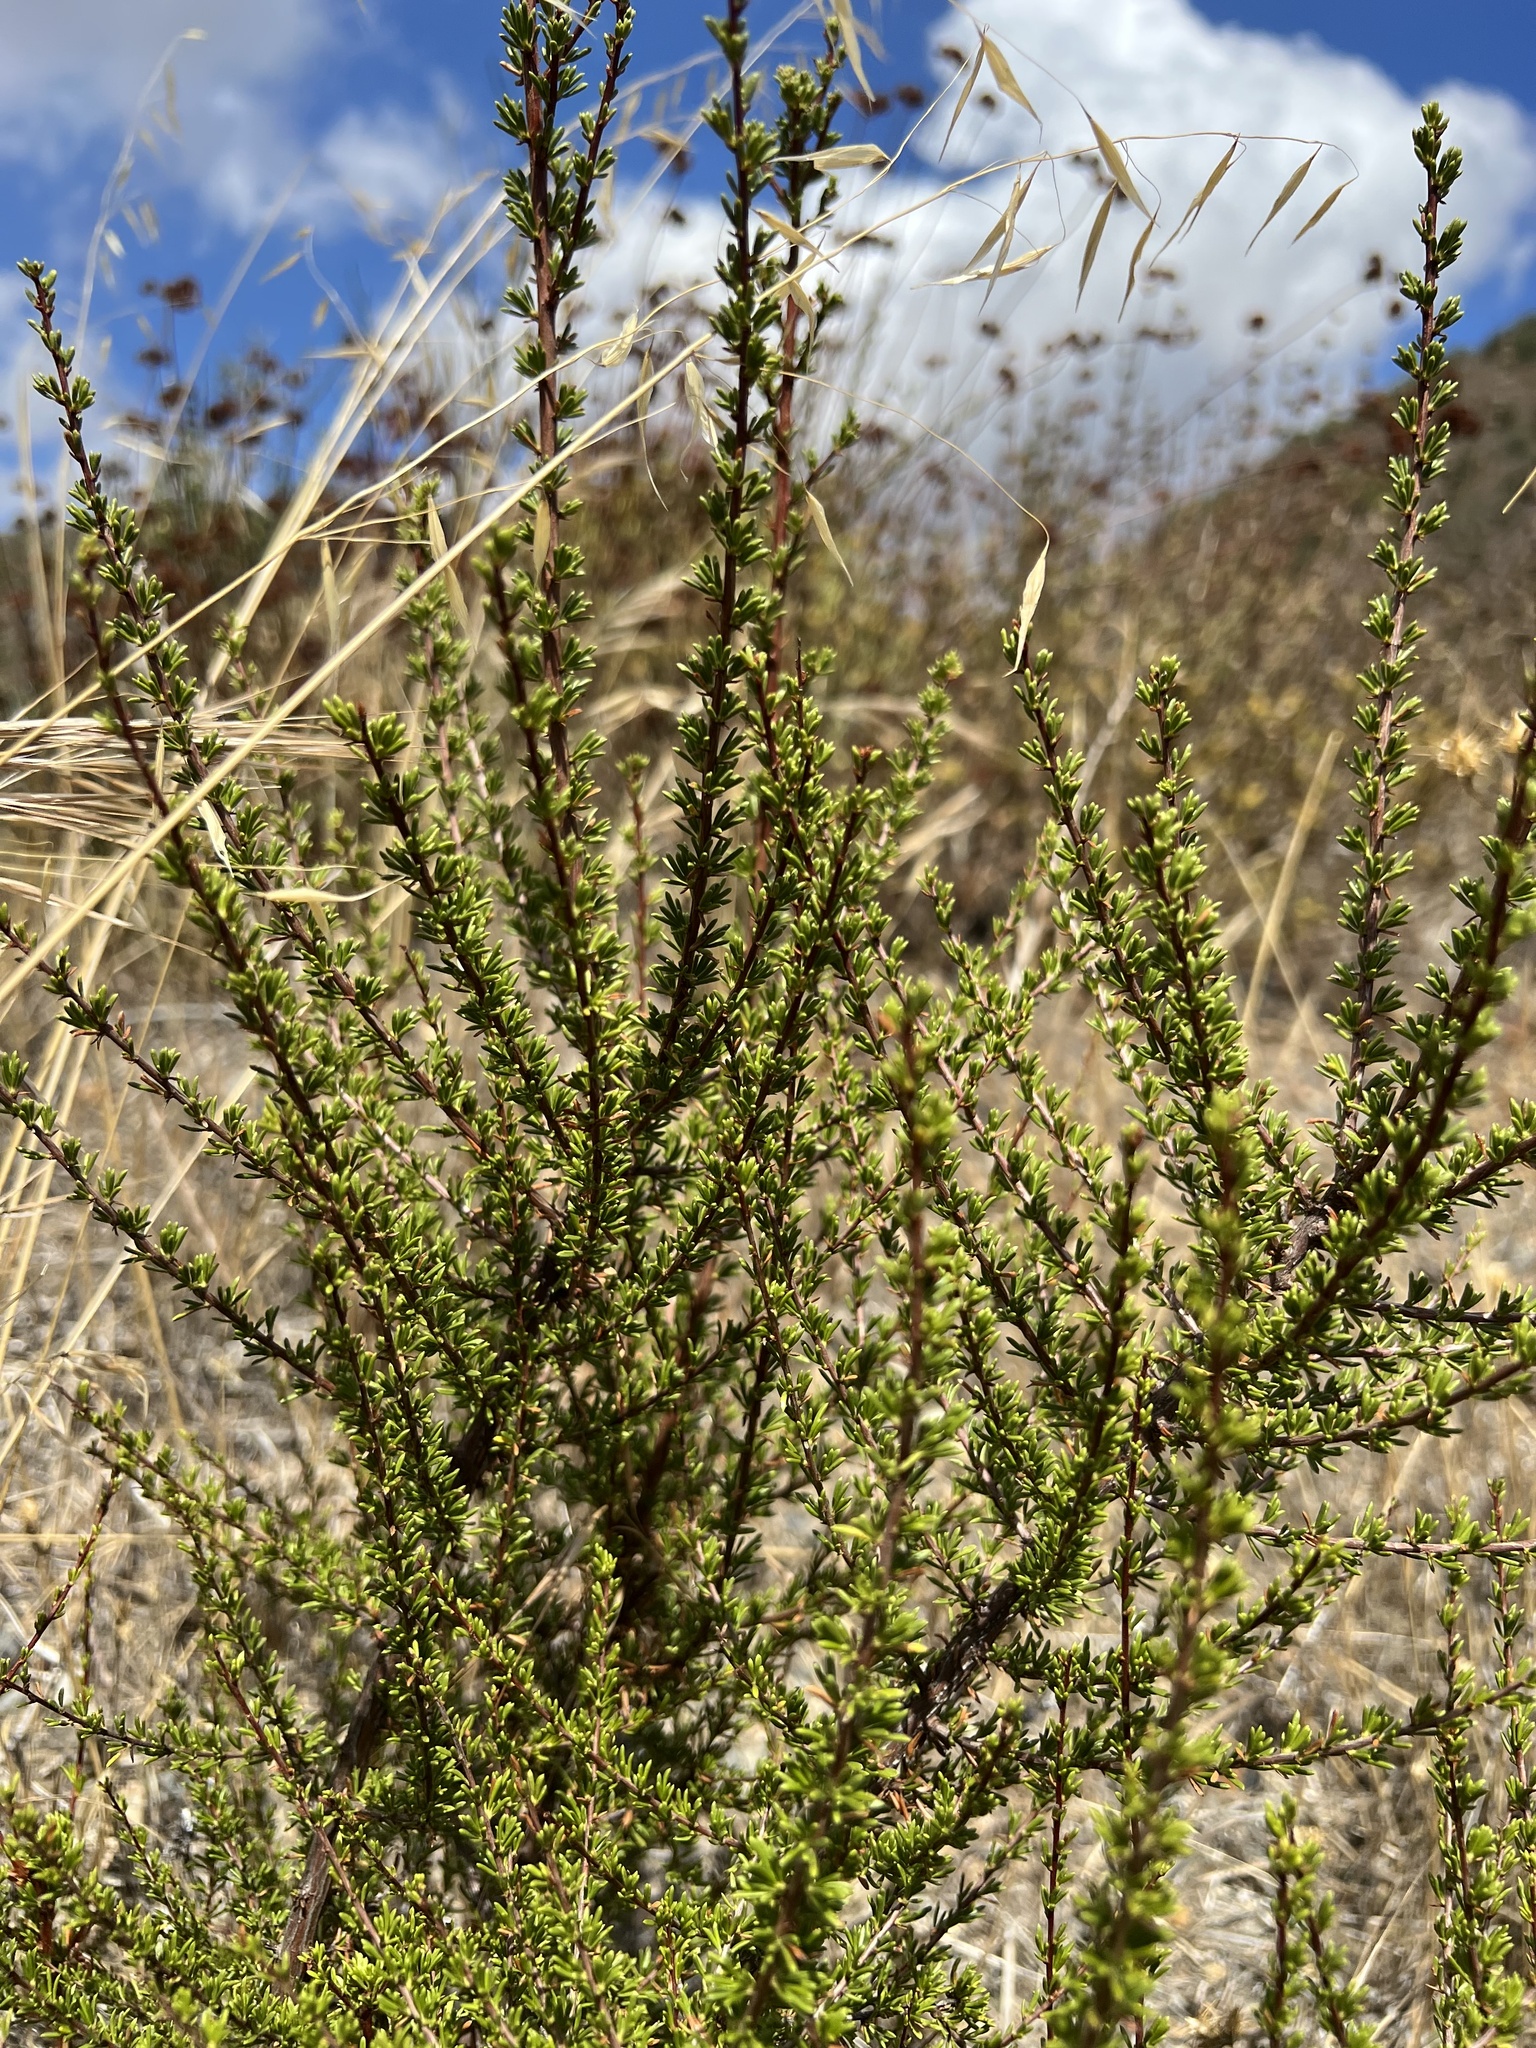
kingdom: Plantae
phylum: Tracheophyta
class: Magnoliopsida
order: Rosales
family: Rosaceae
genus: Adenostoma
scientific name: Adenostoma fasciculatum
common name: Chamise
